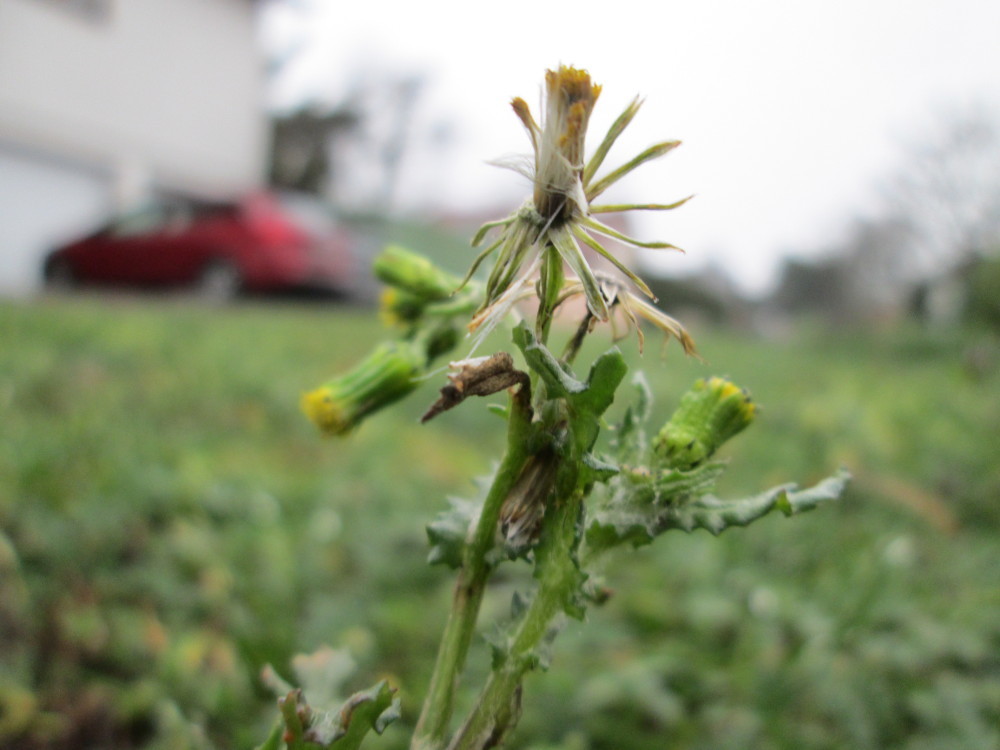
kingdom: Plantae
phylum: Tracheophyta
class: Magnoliopsida
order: Asterales
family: Asteraceae
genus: Senecio
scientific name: Senecio vulgaris
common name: Old-man-in-the-spring
